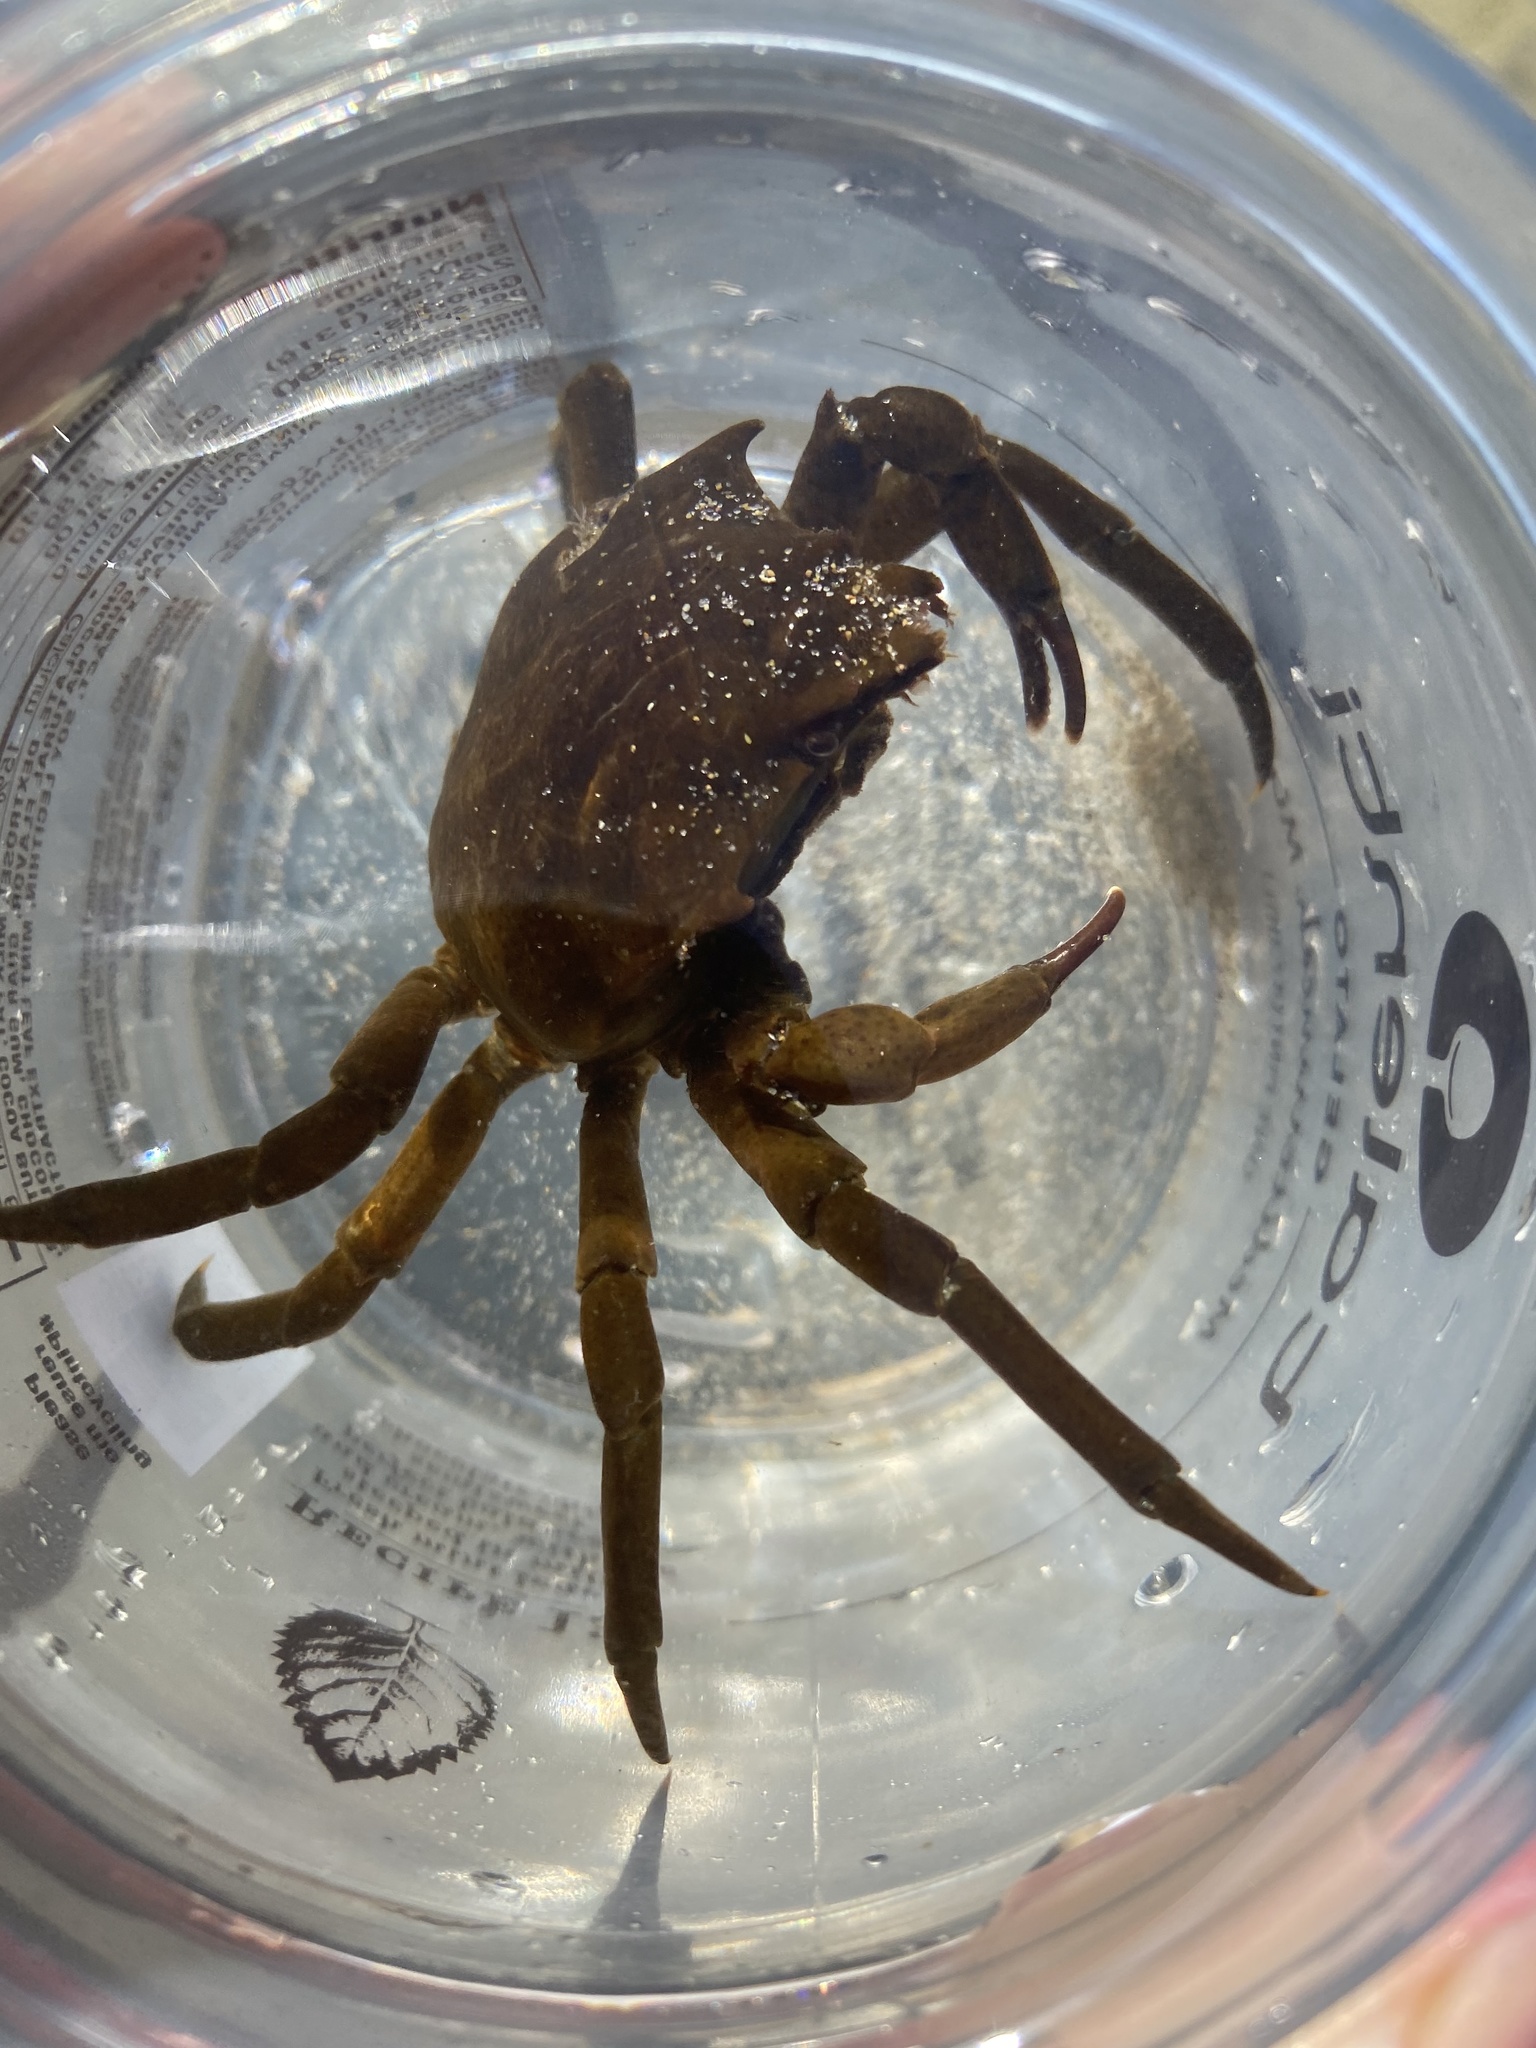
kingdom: Animalia
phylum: Arthropoda
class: Malacostraca
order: Decapoda
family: Epialtidae
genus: Pugettia
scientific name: Pugettia producta
